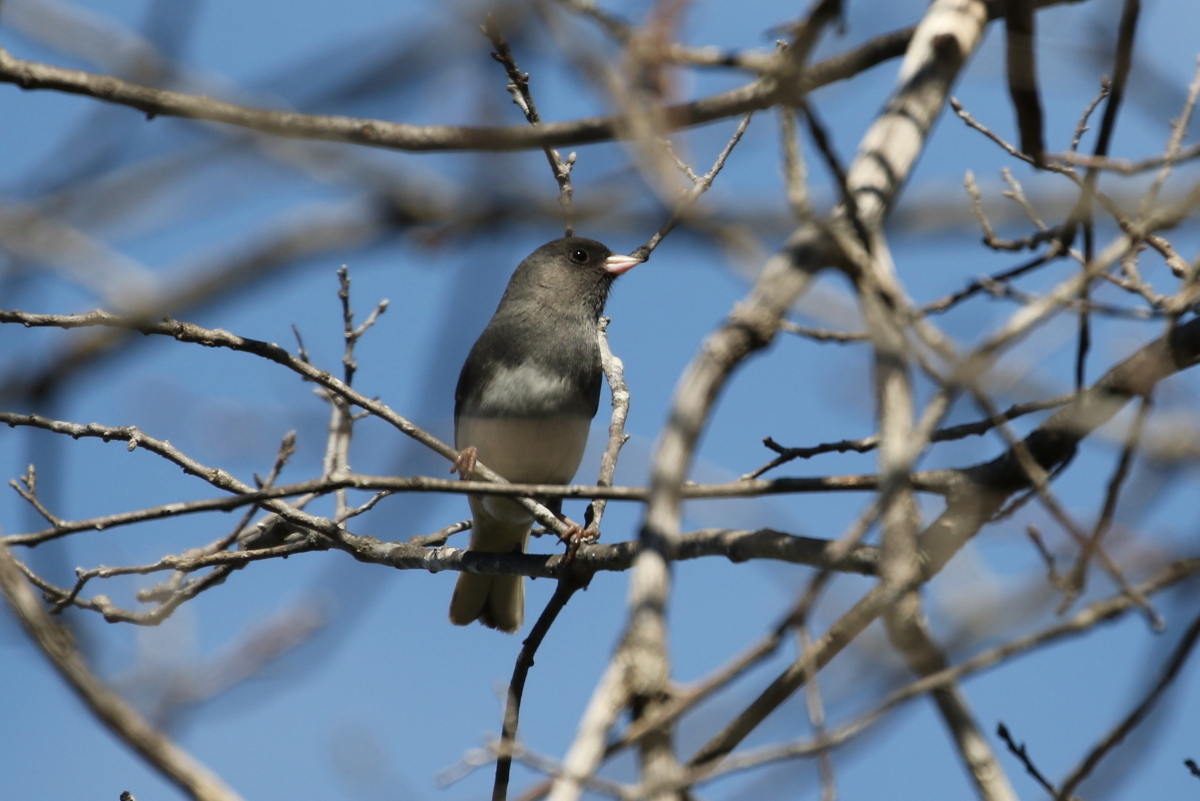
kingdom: Animalia
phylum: Chordata
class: Aves
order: Passeriformes
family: Passerellidae
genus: Junco
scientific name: Junco hyemalis
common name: Dark-eyed junco
